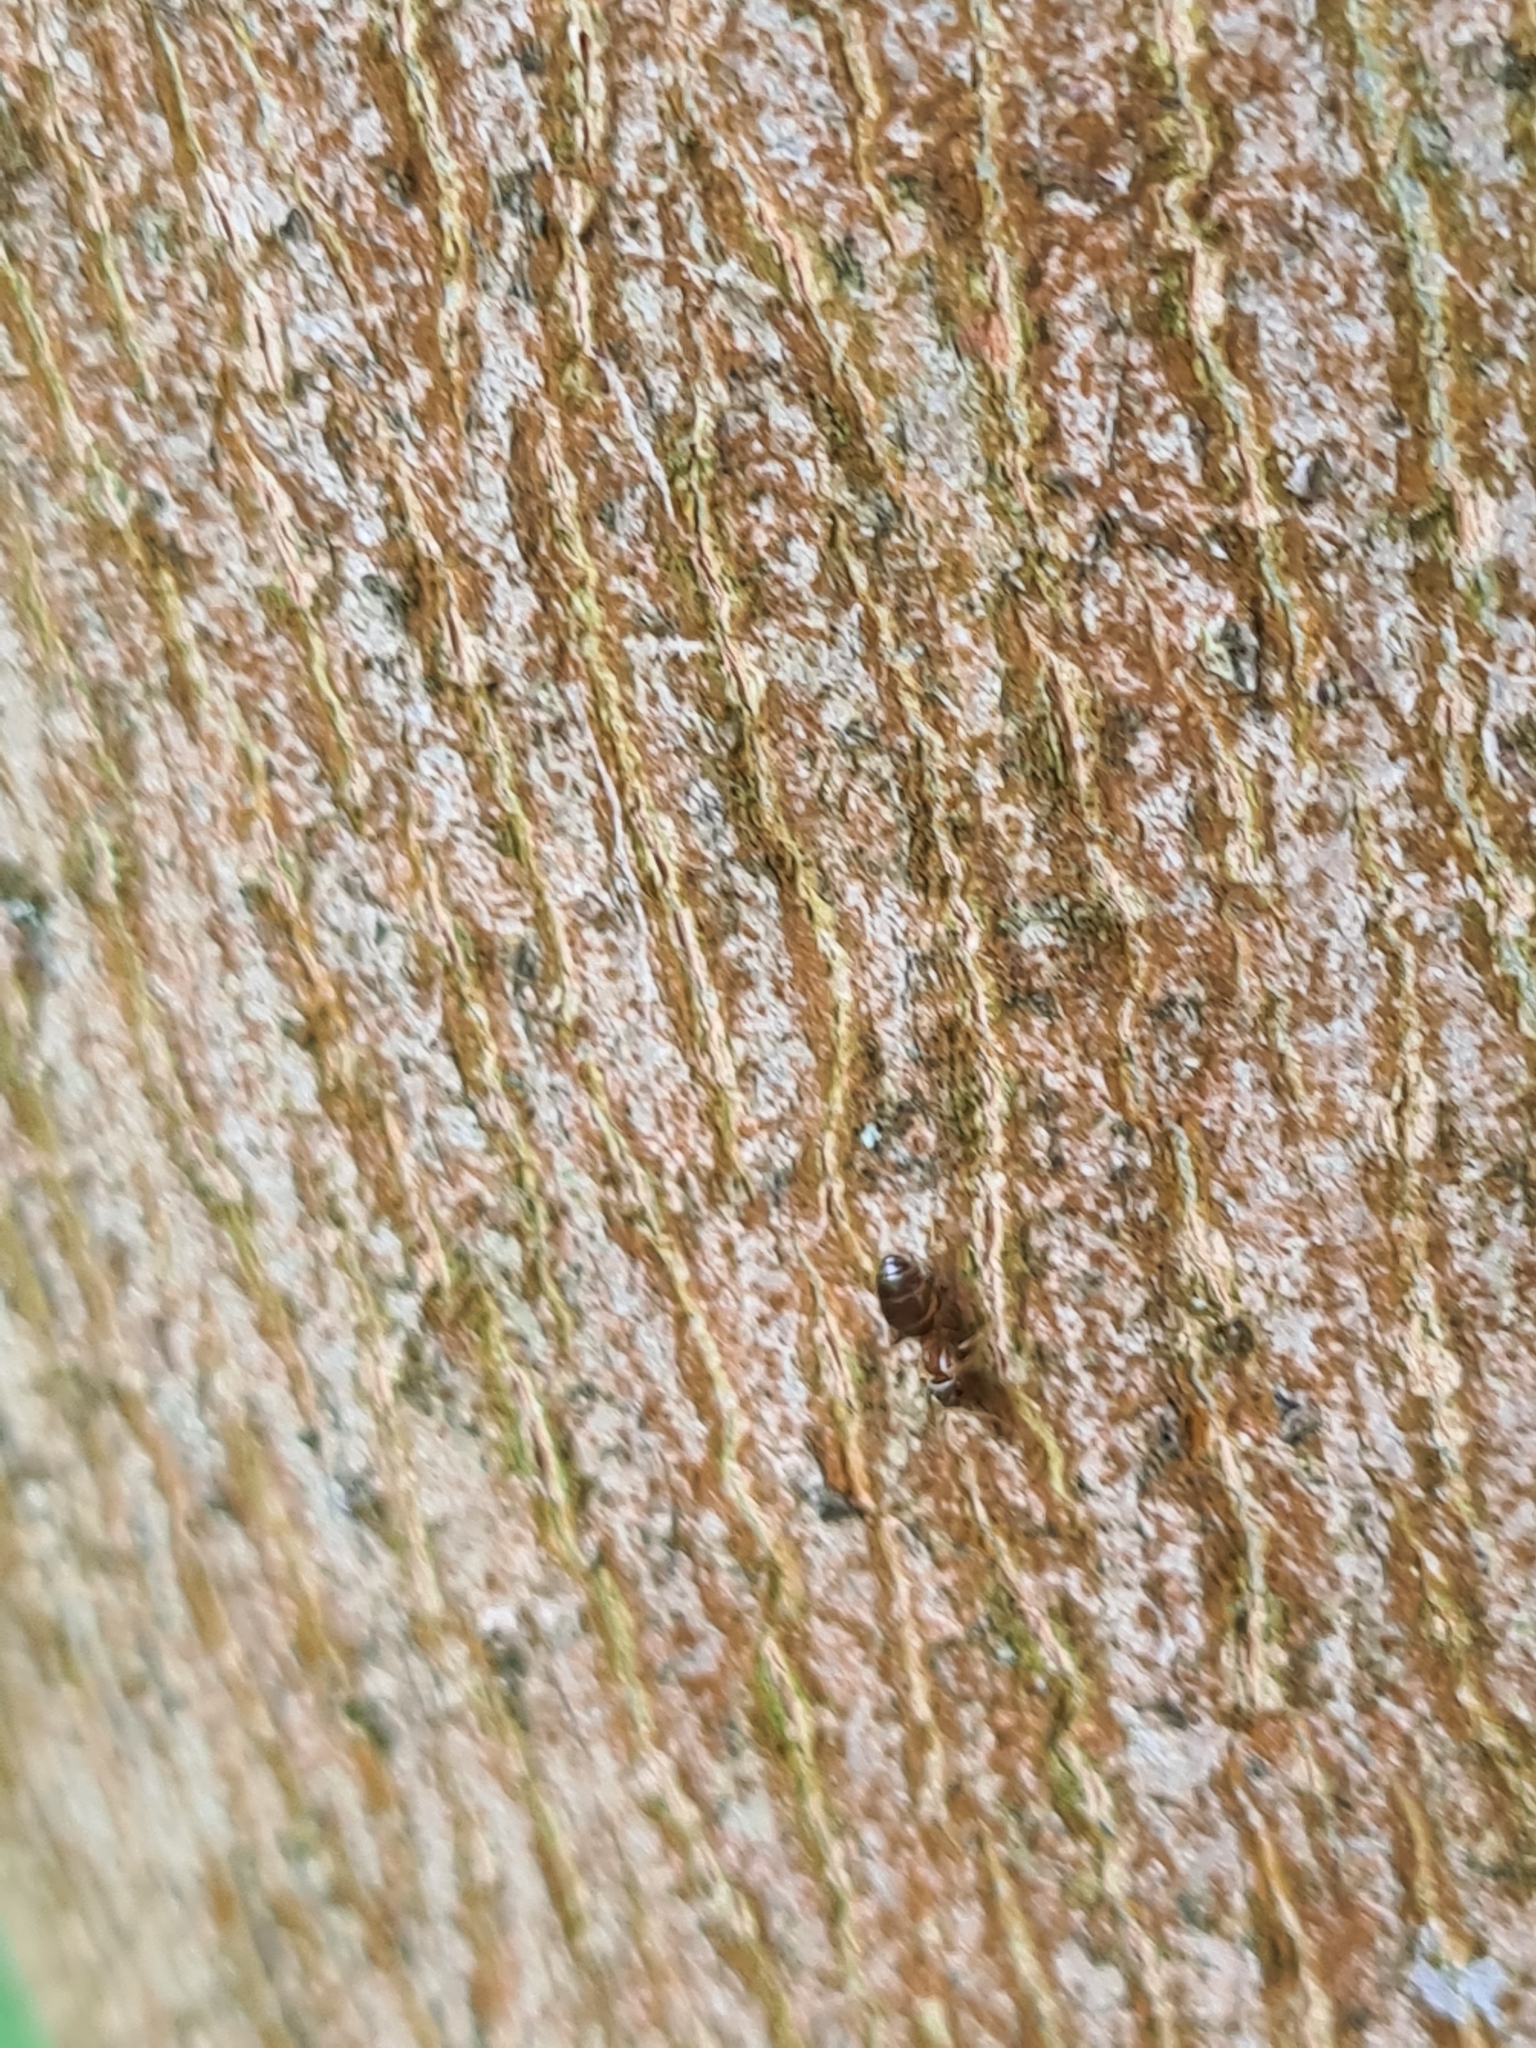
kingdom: Animalia
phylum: Arthropoda
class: Insecta
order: Hymenoptera
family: Formicidae
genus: Lasius
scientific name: Lasius brunneus
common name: Brown ant
